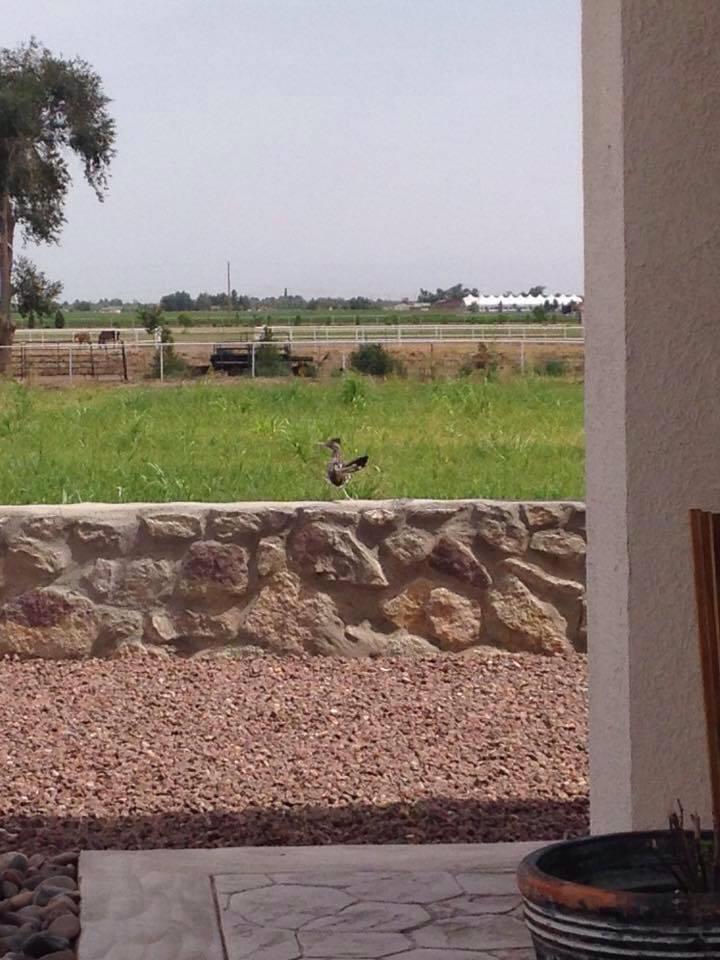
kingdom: Animalia
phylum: Chordata
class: Aves
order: Cuculiformes
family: Cuculidae
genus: Geococcyx
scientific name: Geococcyx californianus
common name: Greater roadrunner
